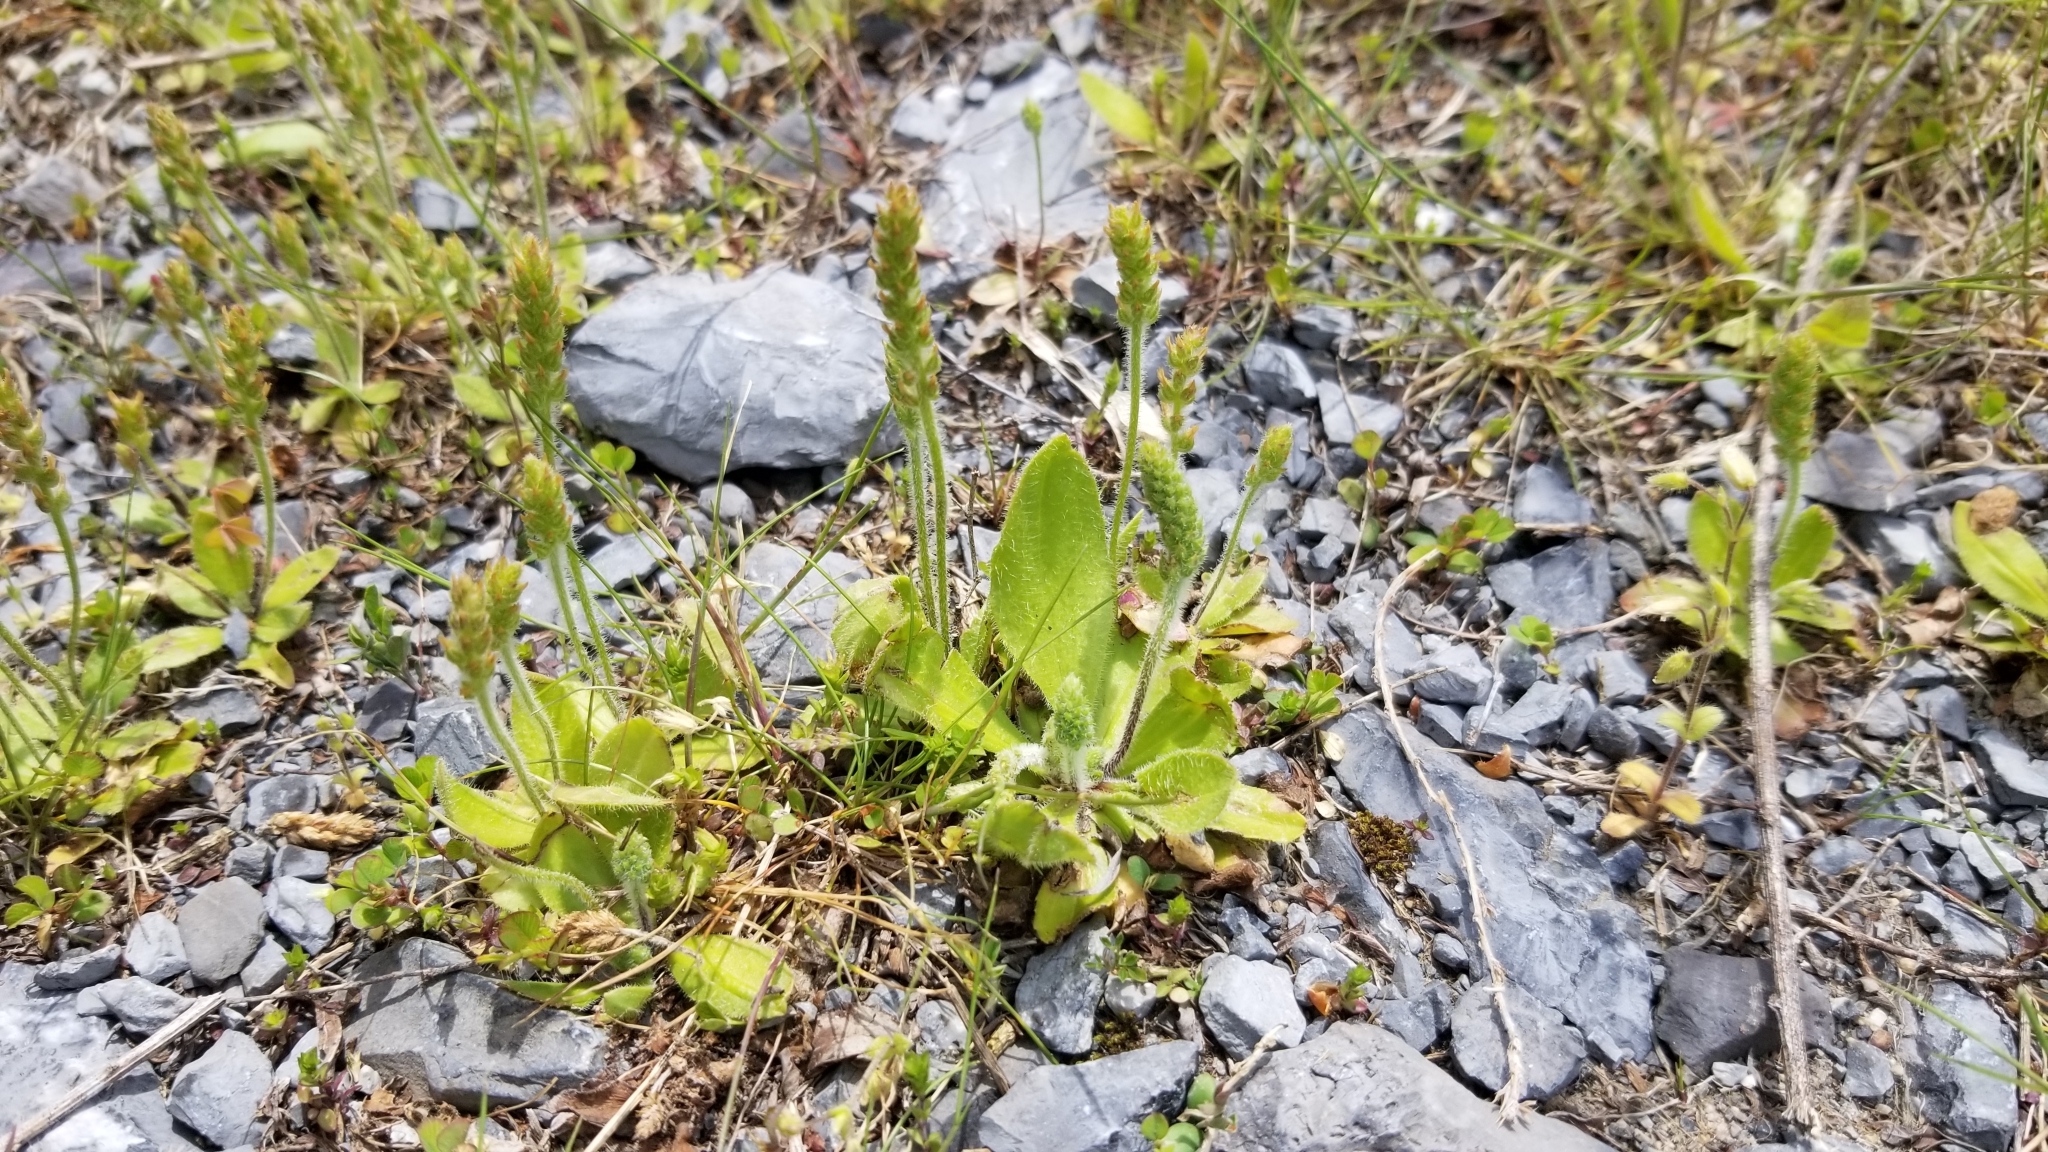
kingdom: Plantae
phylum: Tracheophyta
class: Magnoliopsida
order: Lamiales
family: Plantaginaceae
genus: Plantago
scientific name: Plantago virginica
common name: Hoary plantain
